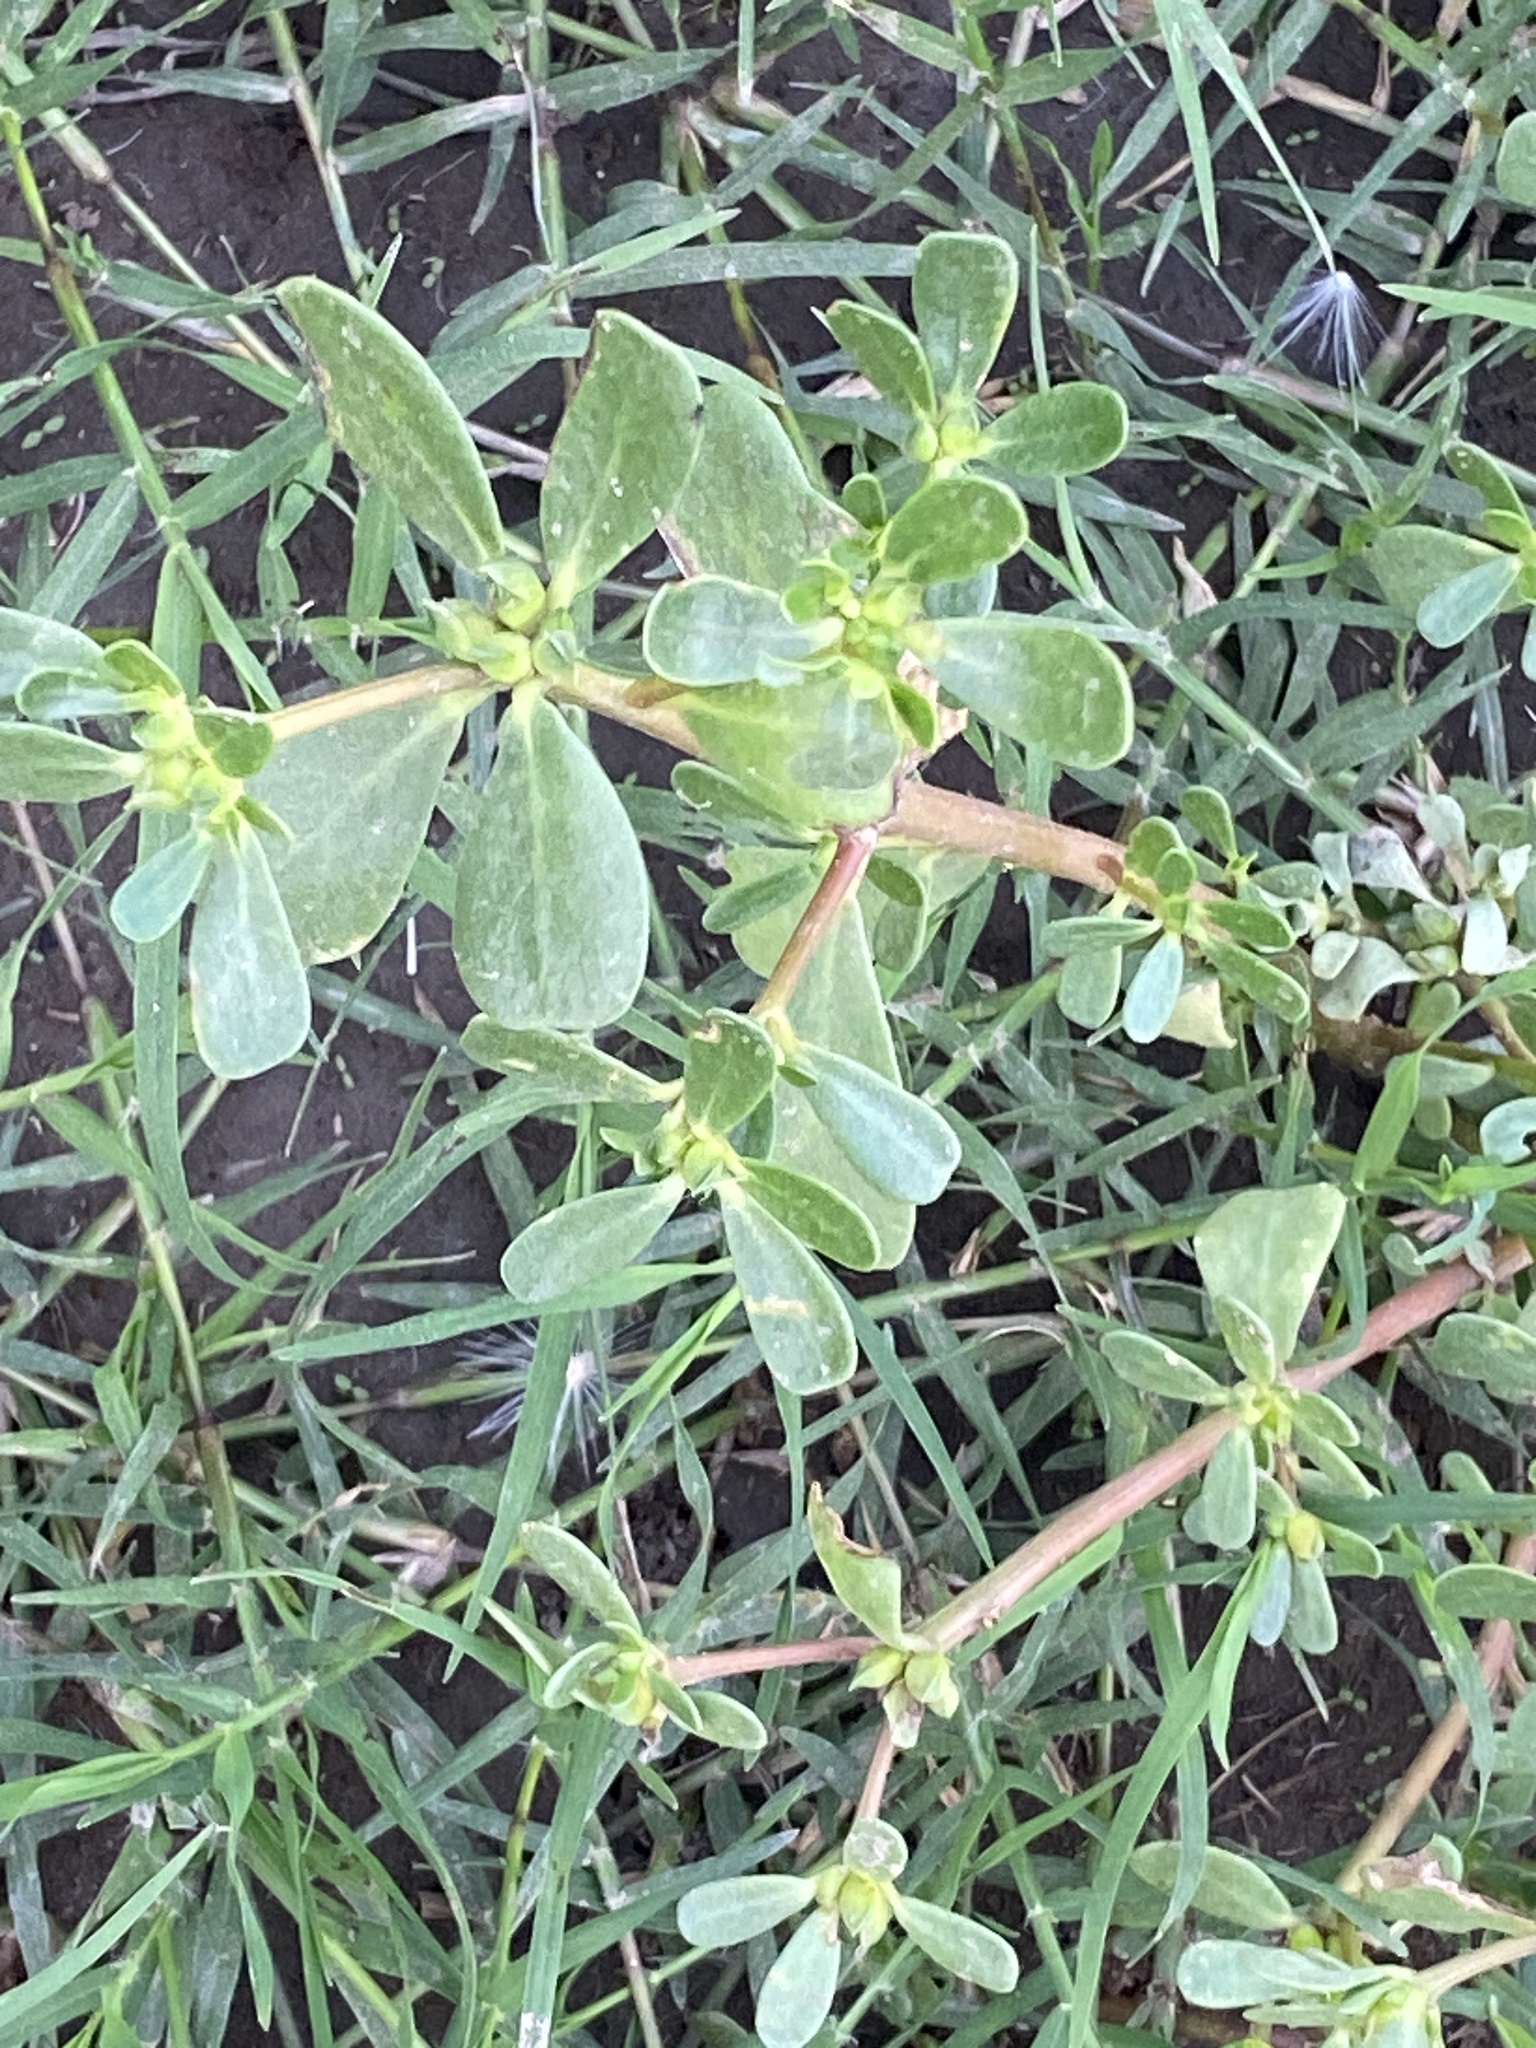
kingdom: Plantae
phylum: Tracheophyta
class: Magnoliopsida
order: Caryophyllales
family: Portulacaceae
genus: Portulaca
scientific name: Portulaca oleracea
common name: Common purslane
